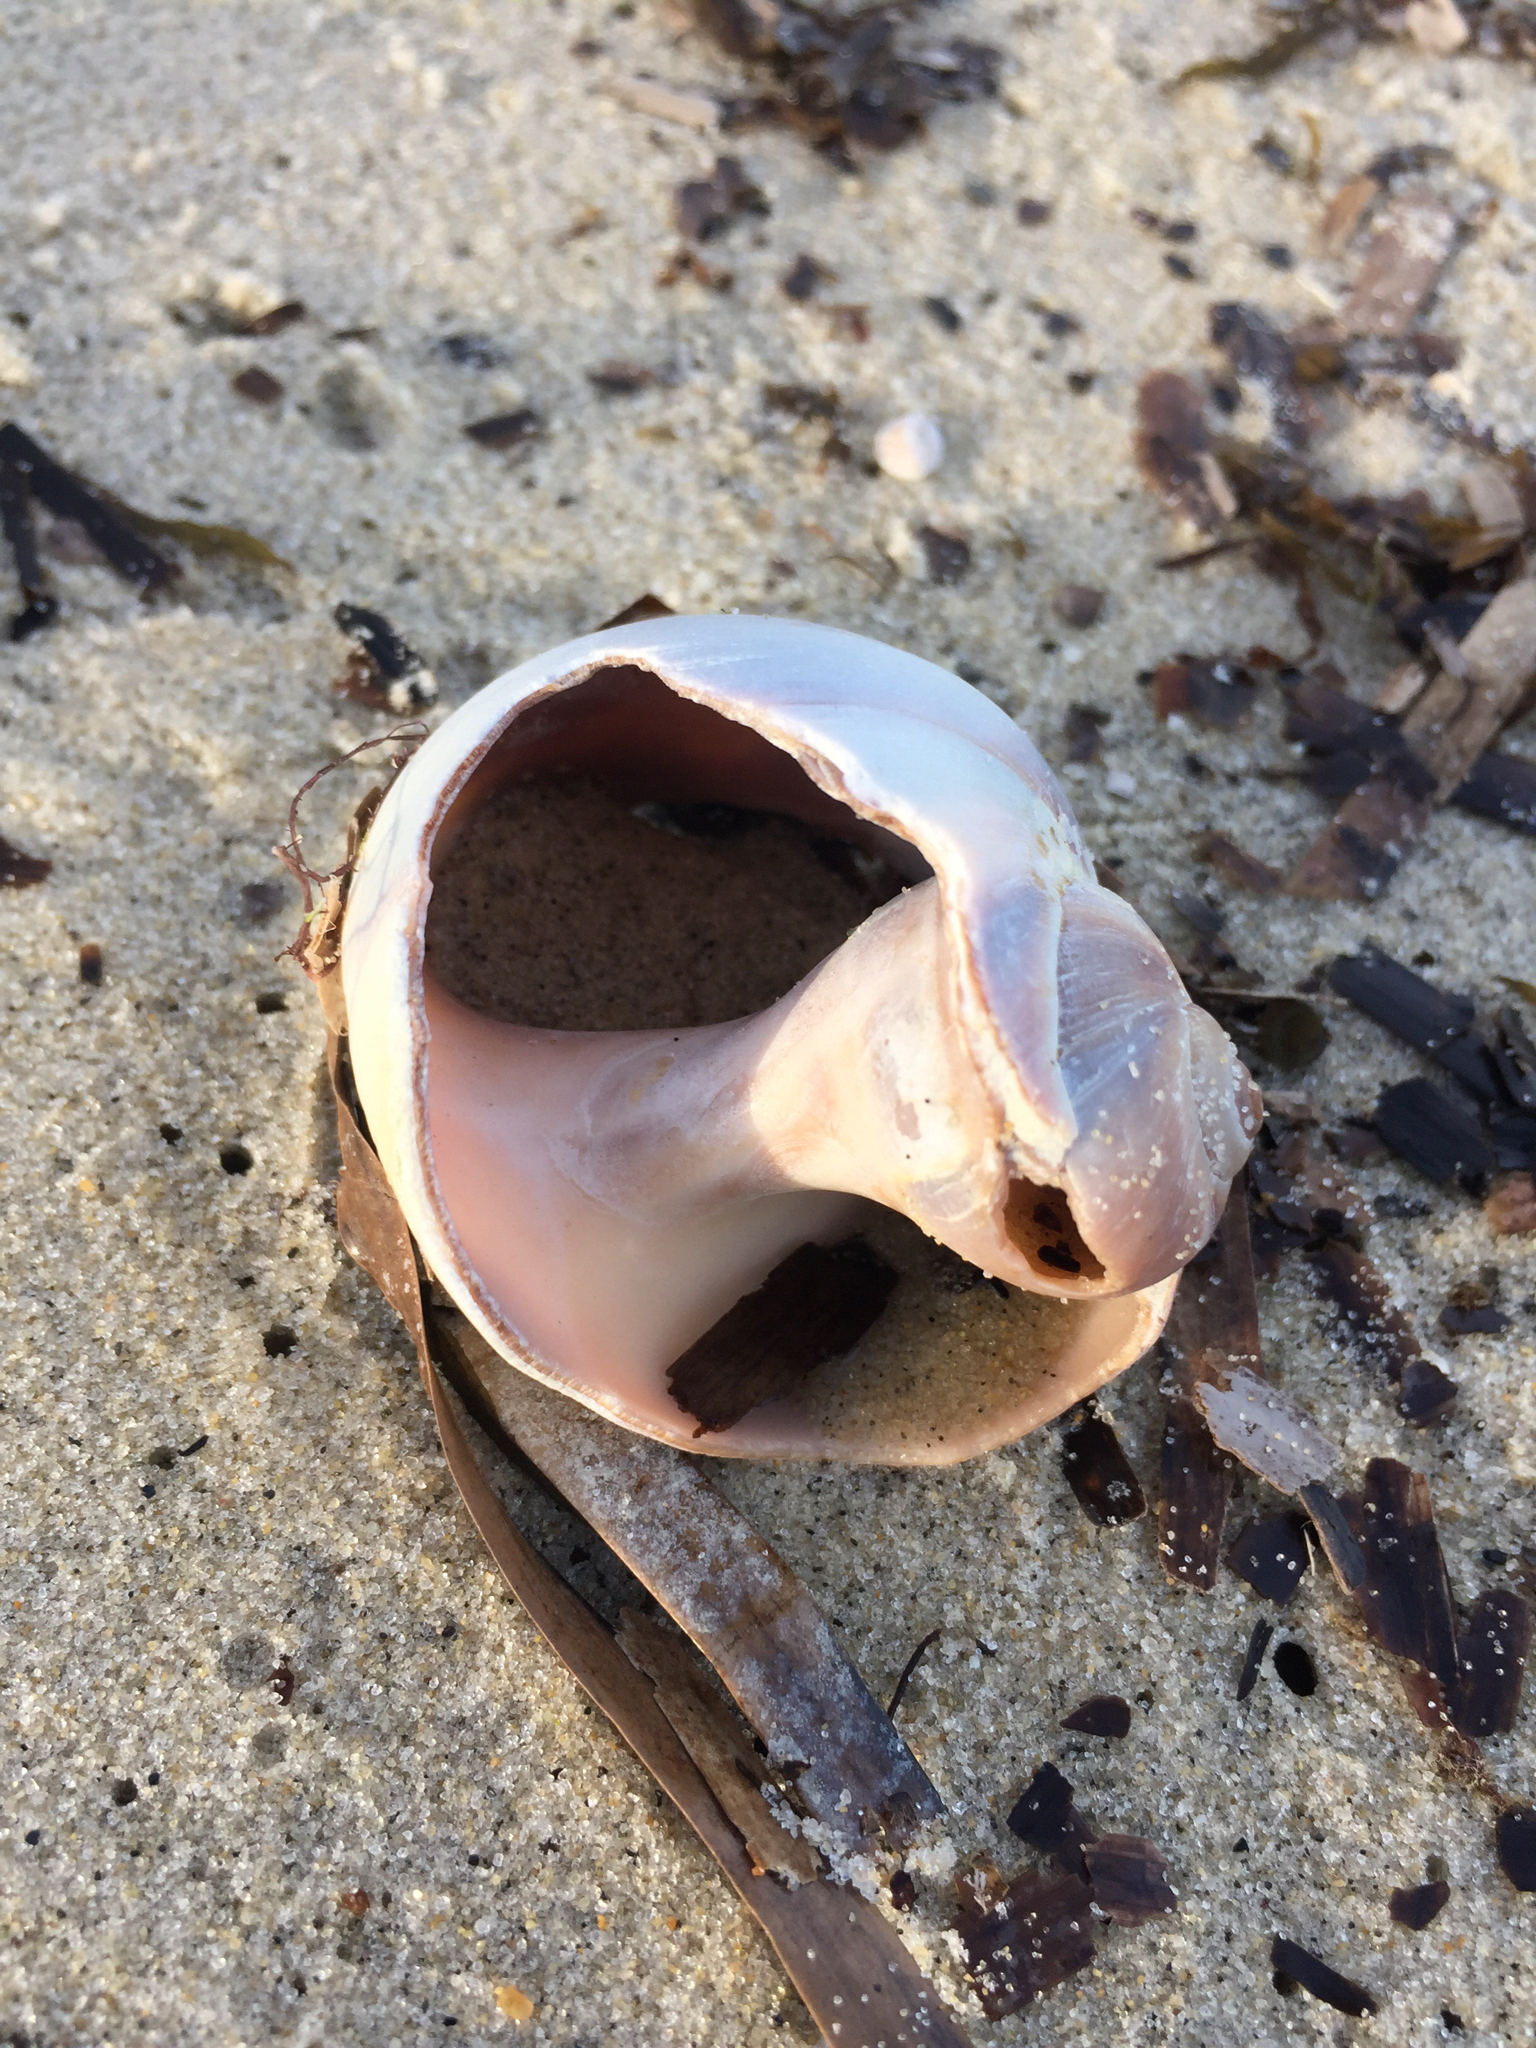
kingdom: Animalia
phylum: Mollusca
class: Gastropoda
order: Littorinimorpha
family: Naticidae
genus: Euspira
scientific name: Euspira heros
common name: Common northern moonsnail
